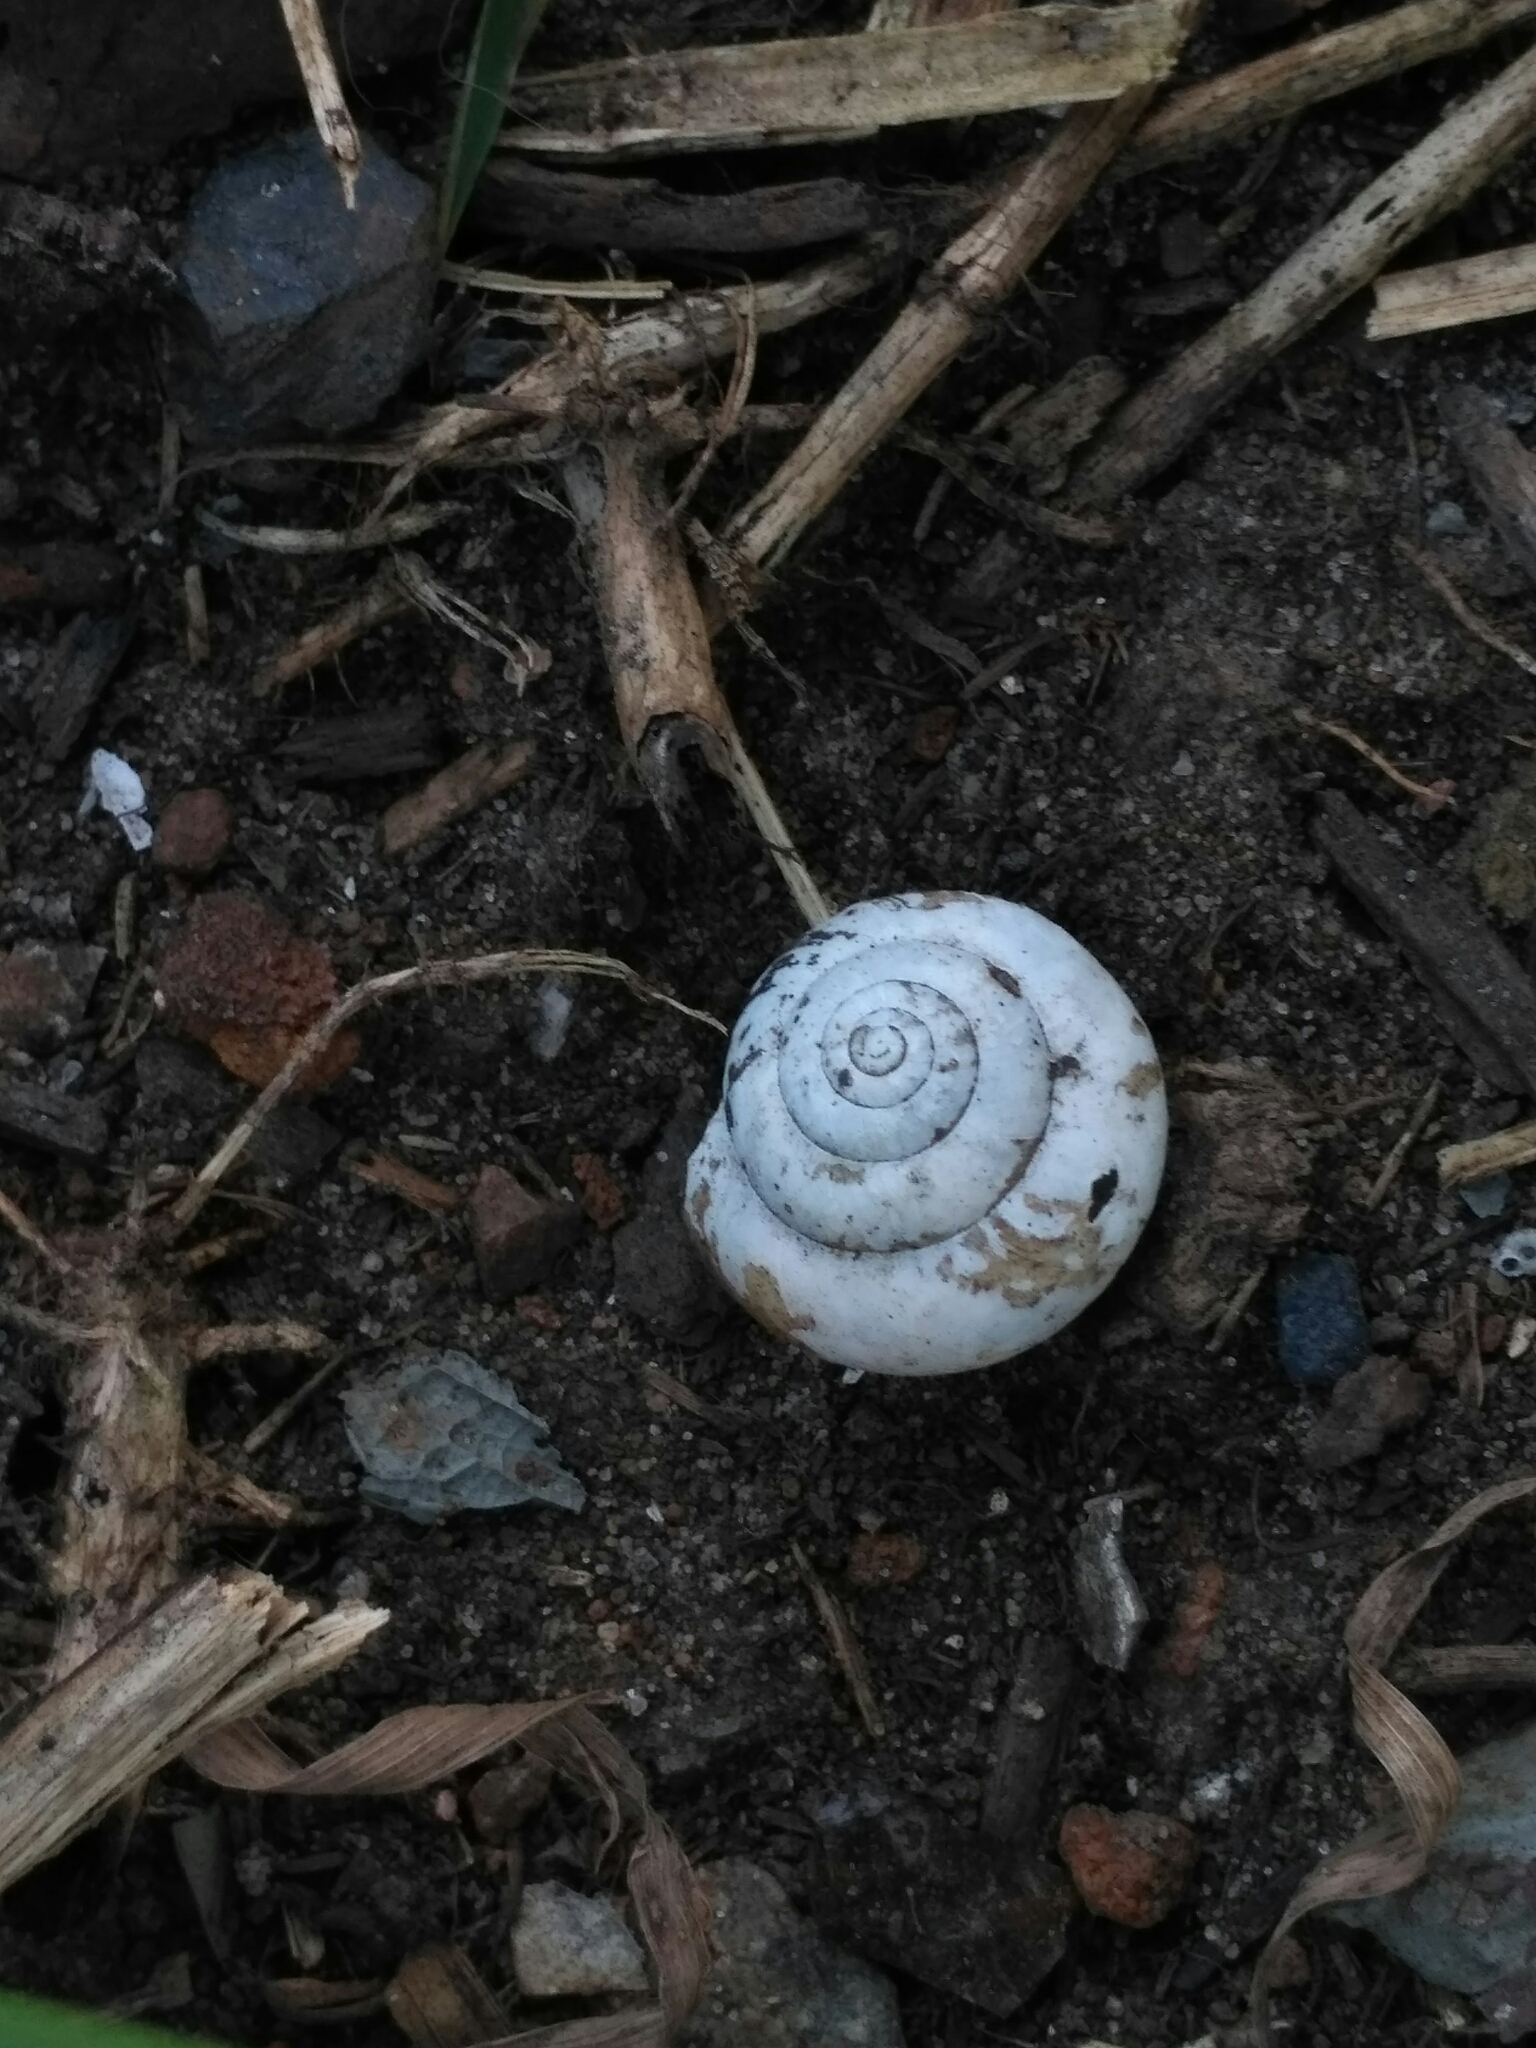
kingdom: Animalia
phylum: Mollusca
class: Gastropoda
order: Stylommatophora
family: Camaenidae
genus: Fruticicola
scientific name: Fruticicola fruticum
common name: Bush snail
